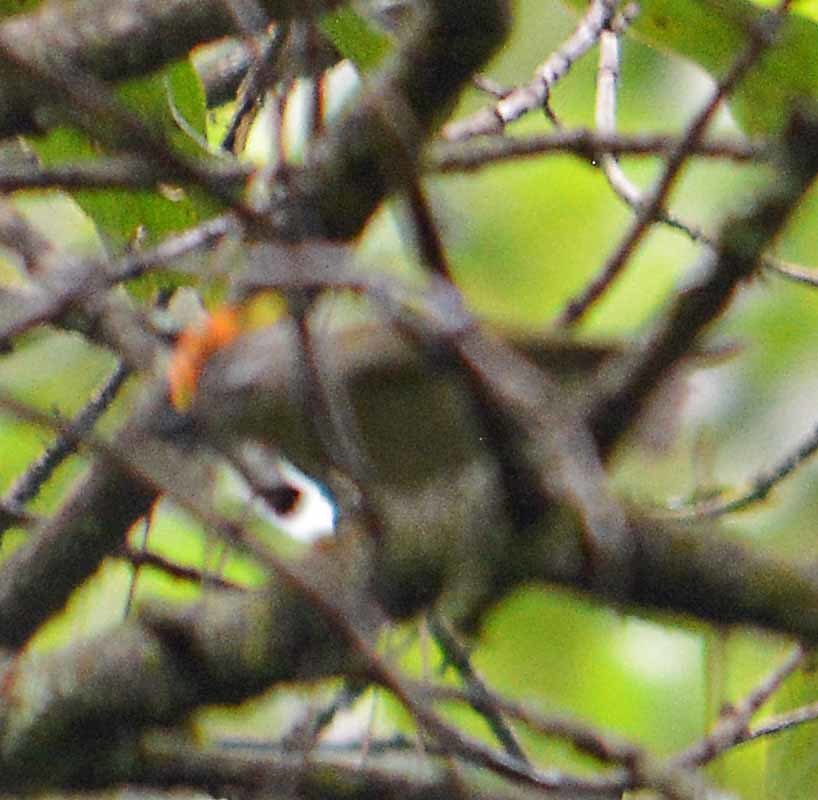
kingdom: Animalia
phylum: Chordata
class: Aves
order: Passeriformes
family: Regulidae
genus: Regulus
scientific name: Regulus satrapa
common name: Golden-crowned kinglet
